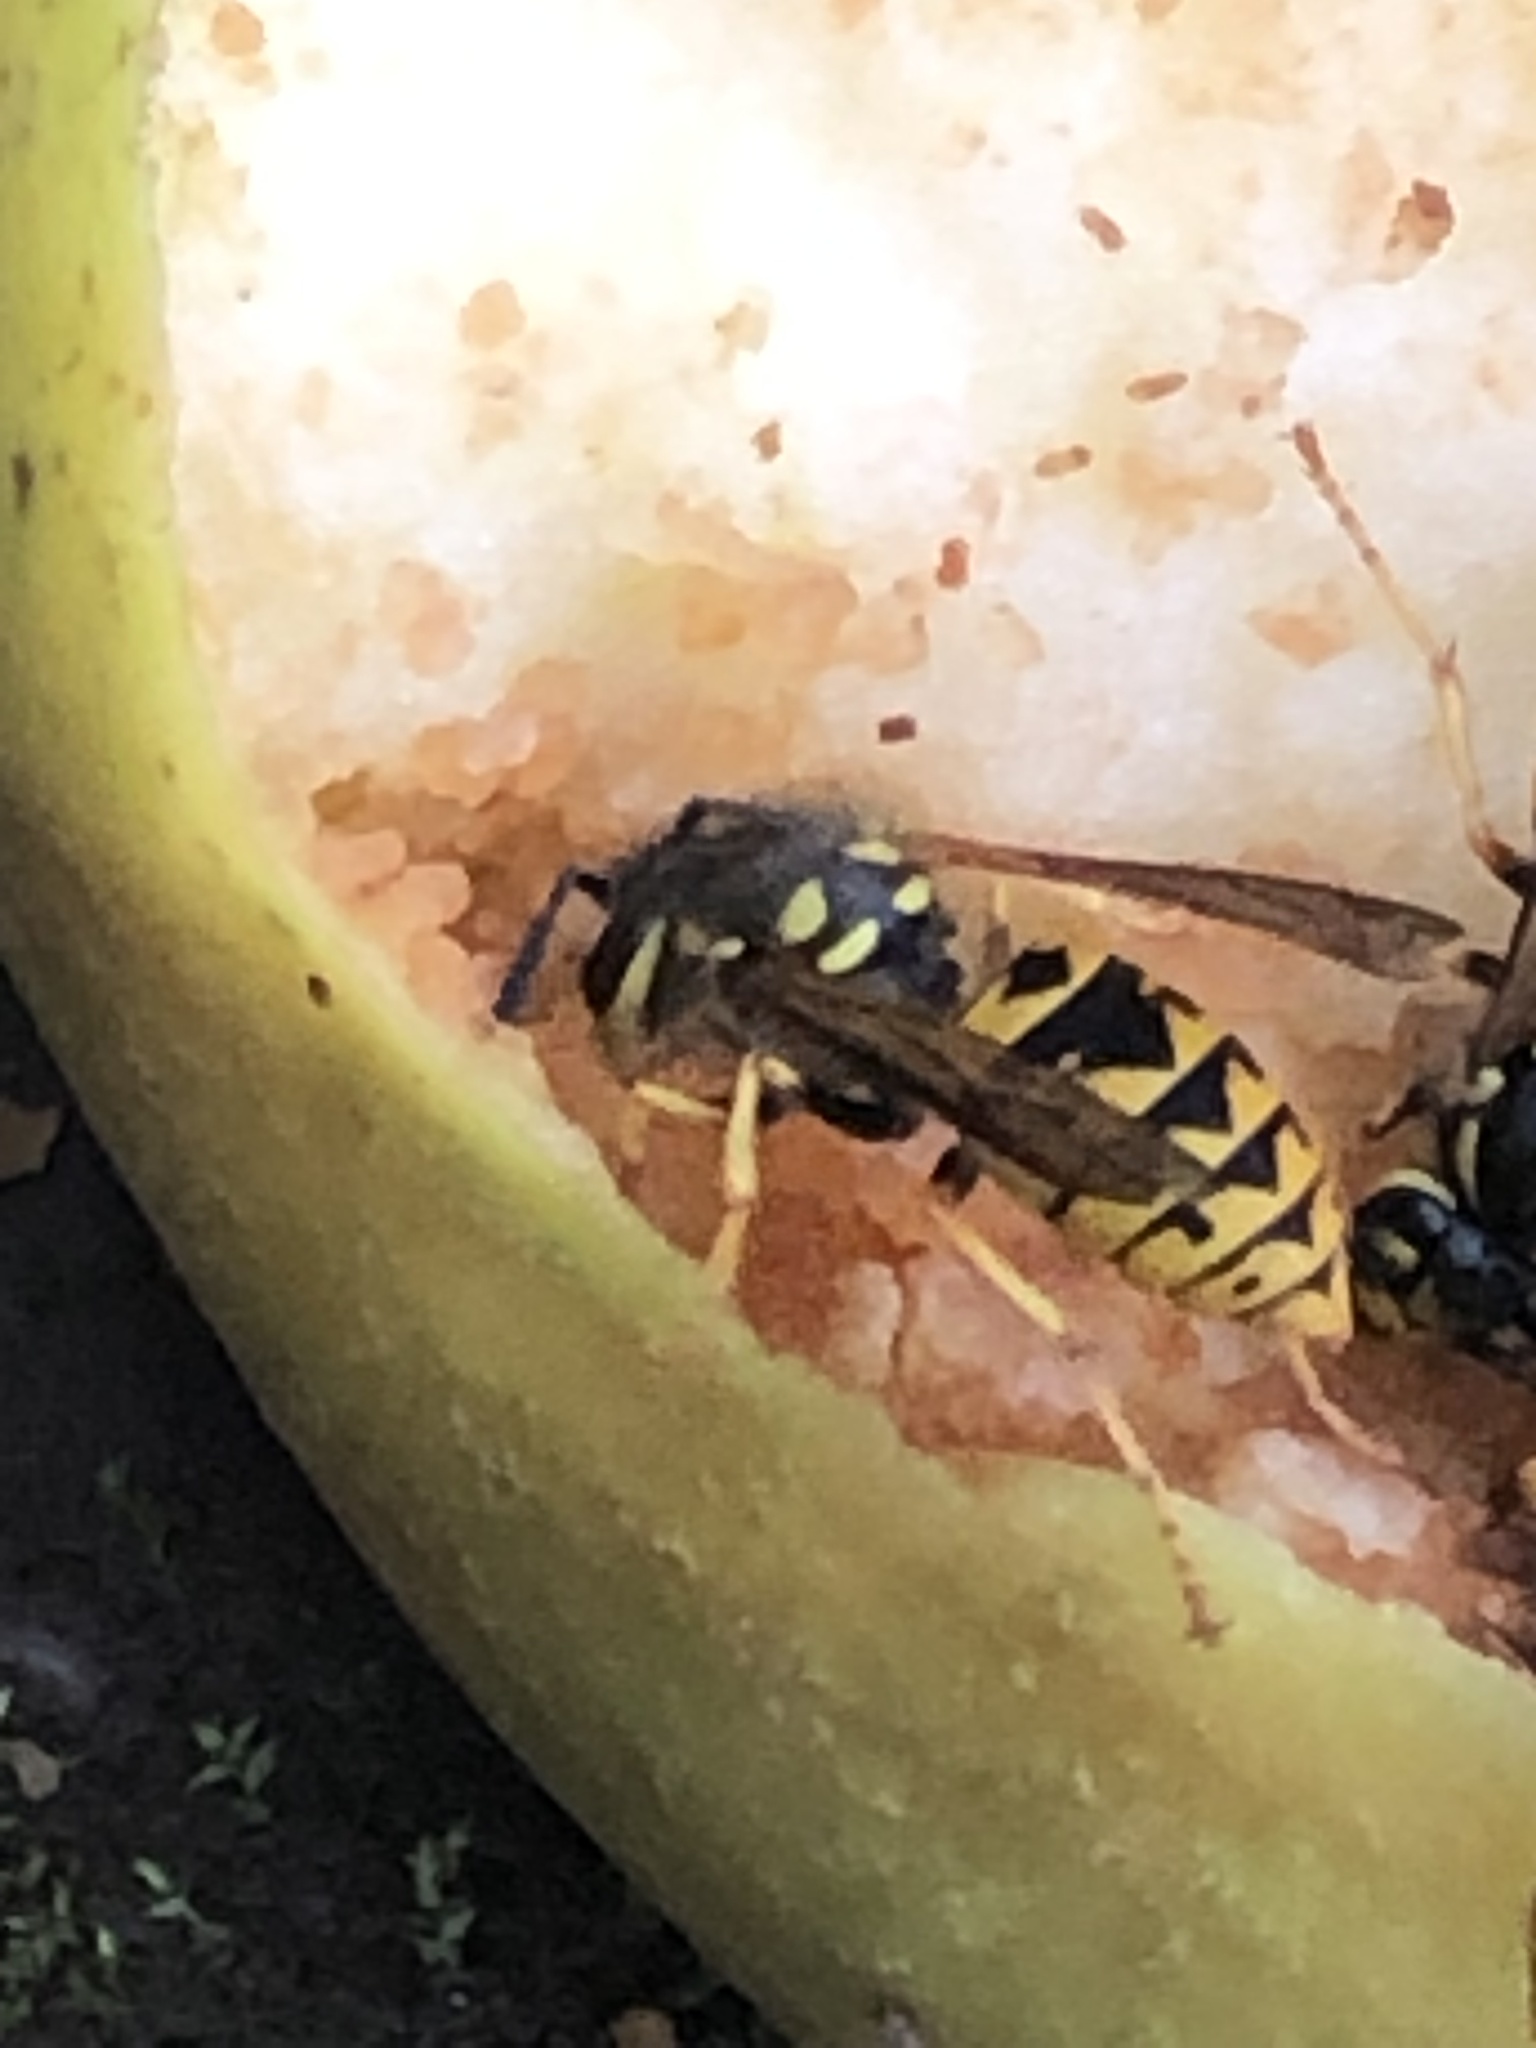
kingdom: Animalia
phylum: Arthropoda
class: Insecta
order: Hymenoptera
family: Vespidae
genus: Vespula
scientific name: Vespula germanica
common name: German wasp
